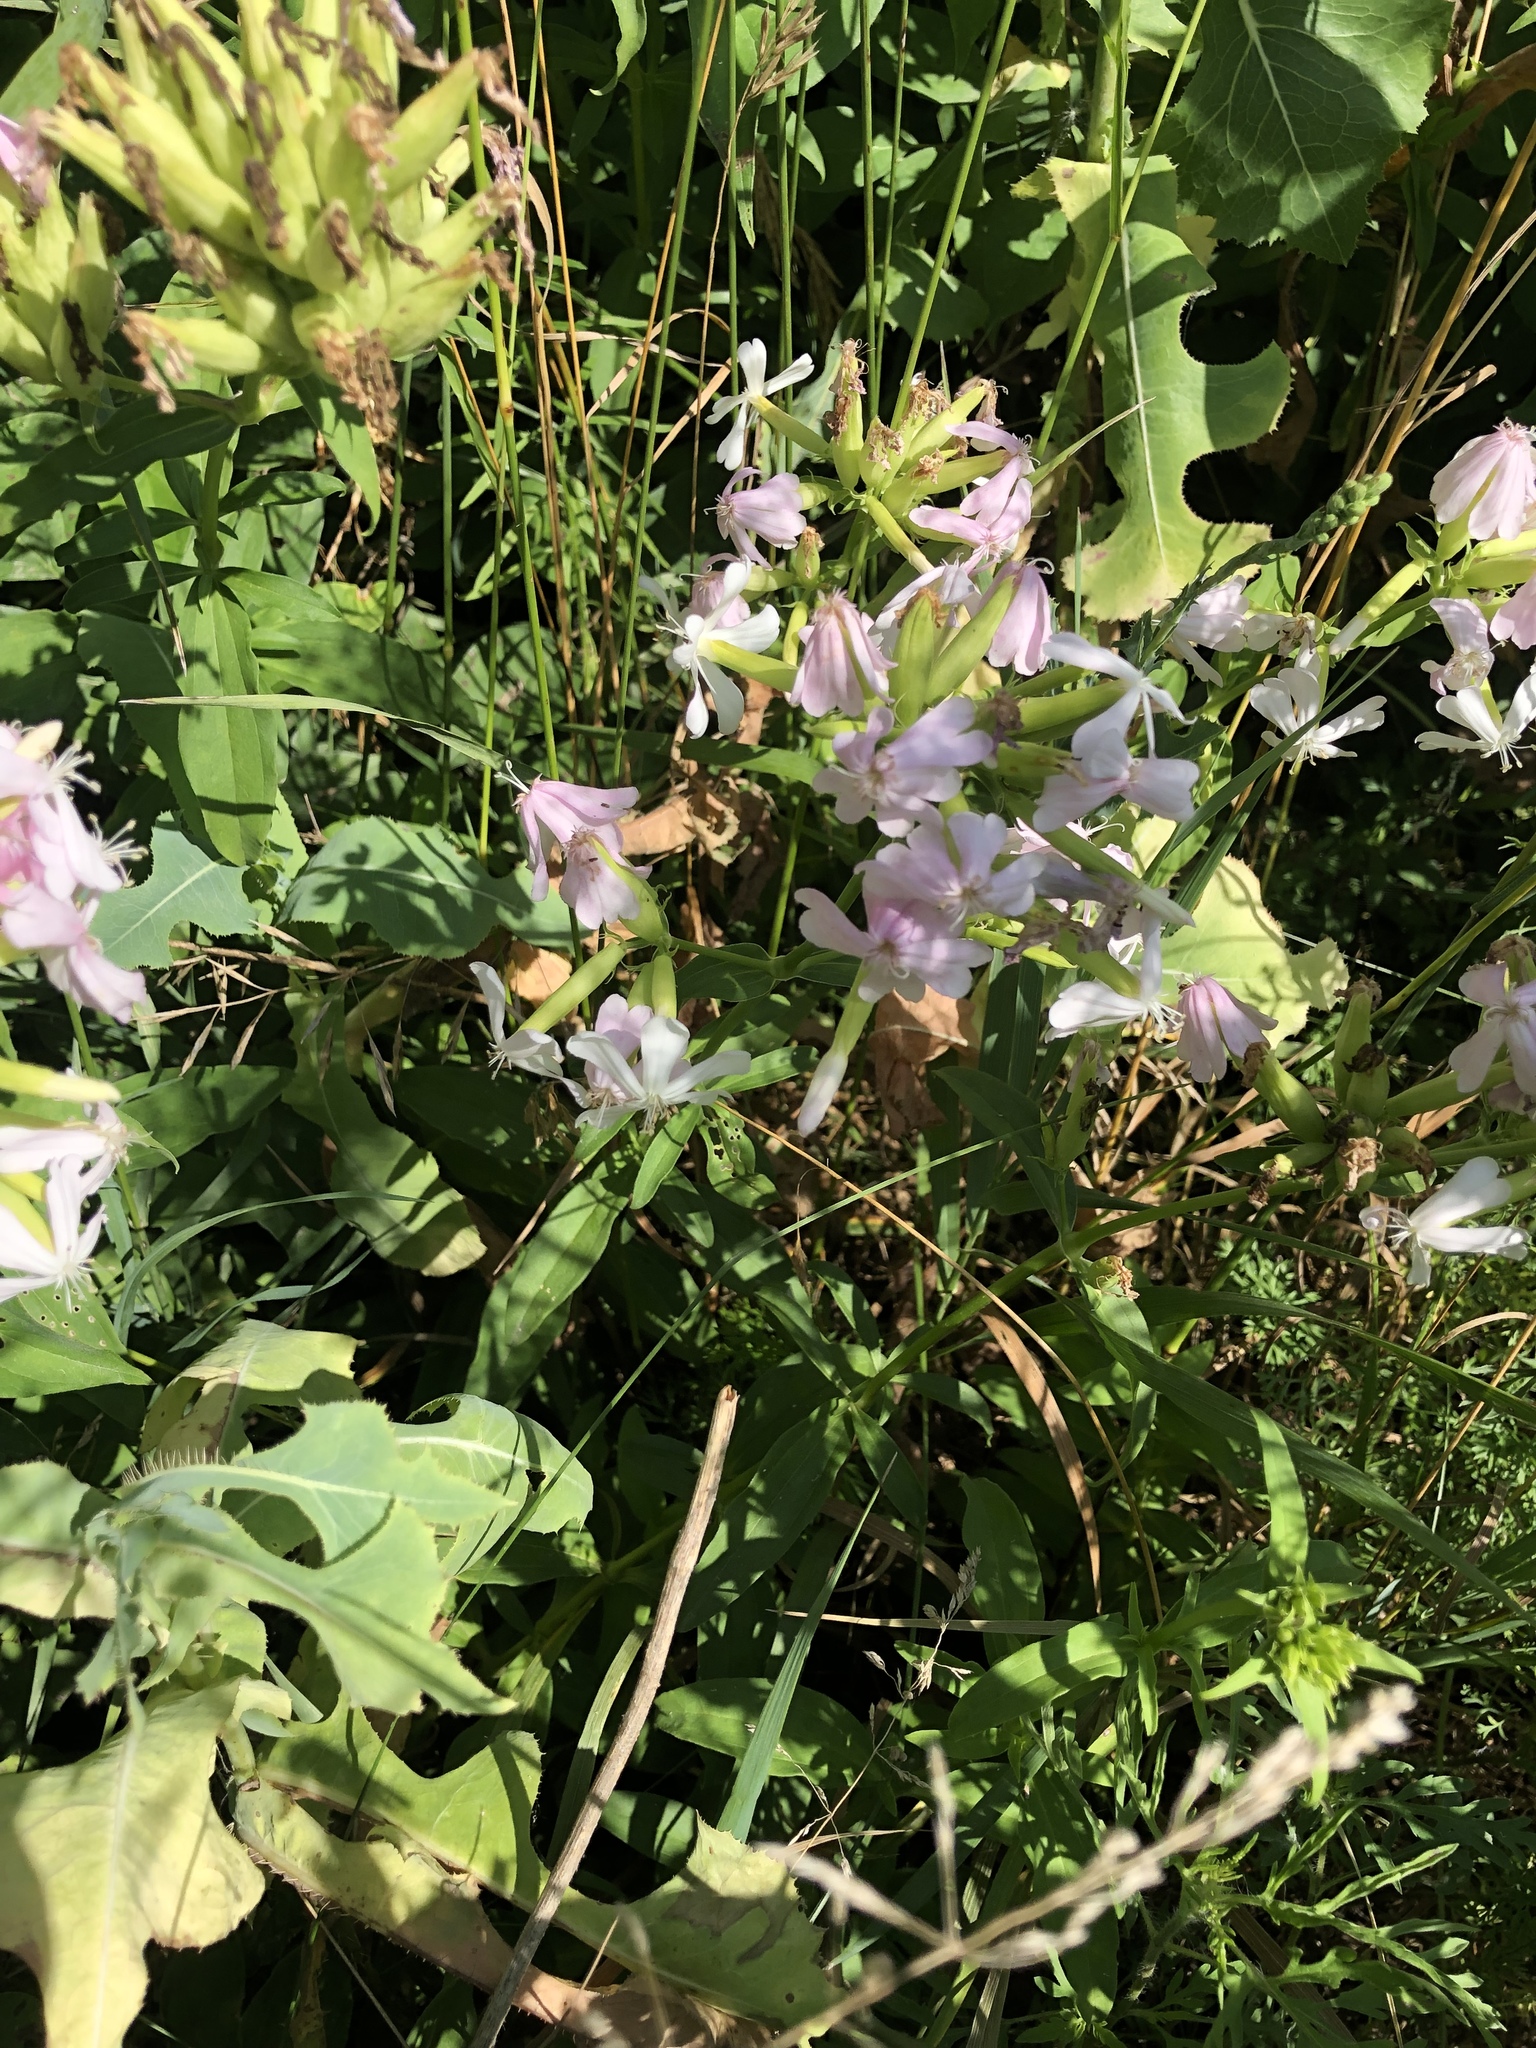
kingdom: Plantae
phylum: Tracheophyta
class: Magnoliopsida
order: Caryophyllales
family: Caryophyllaceae
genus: Saponaria
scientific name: Saponaria officinalis
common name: Soapwort
